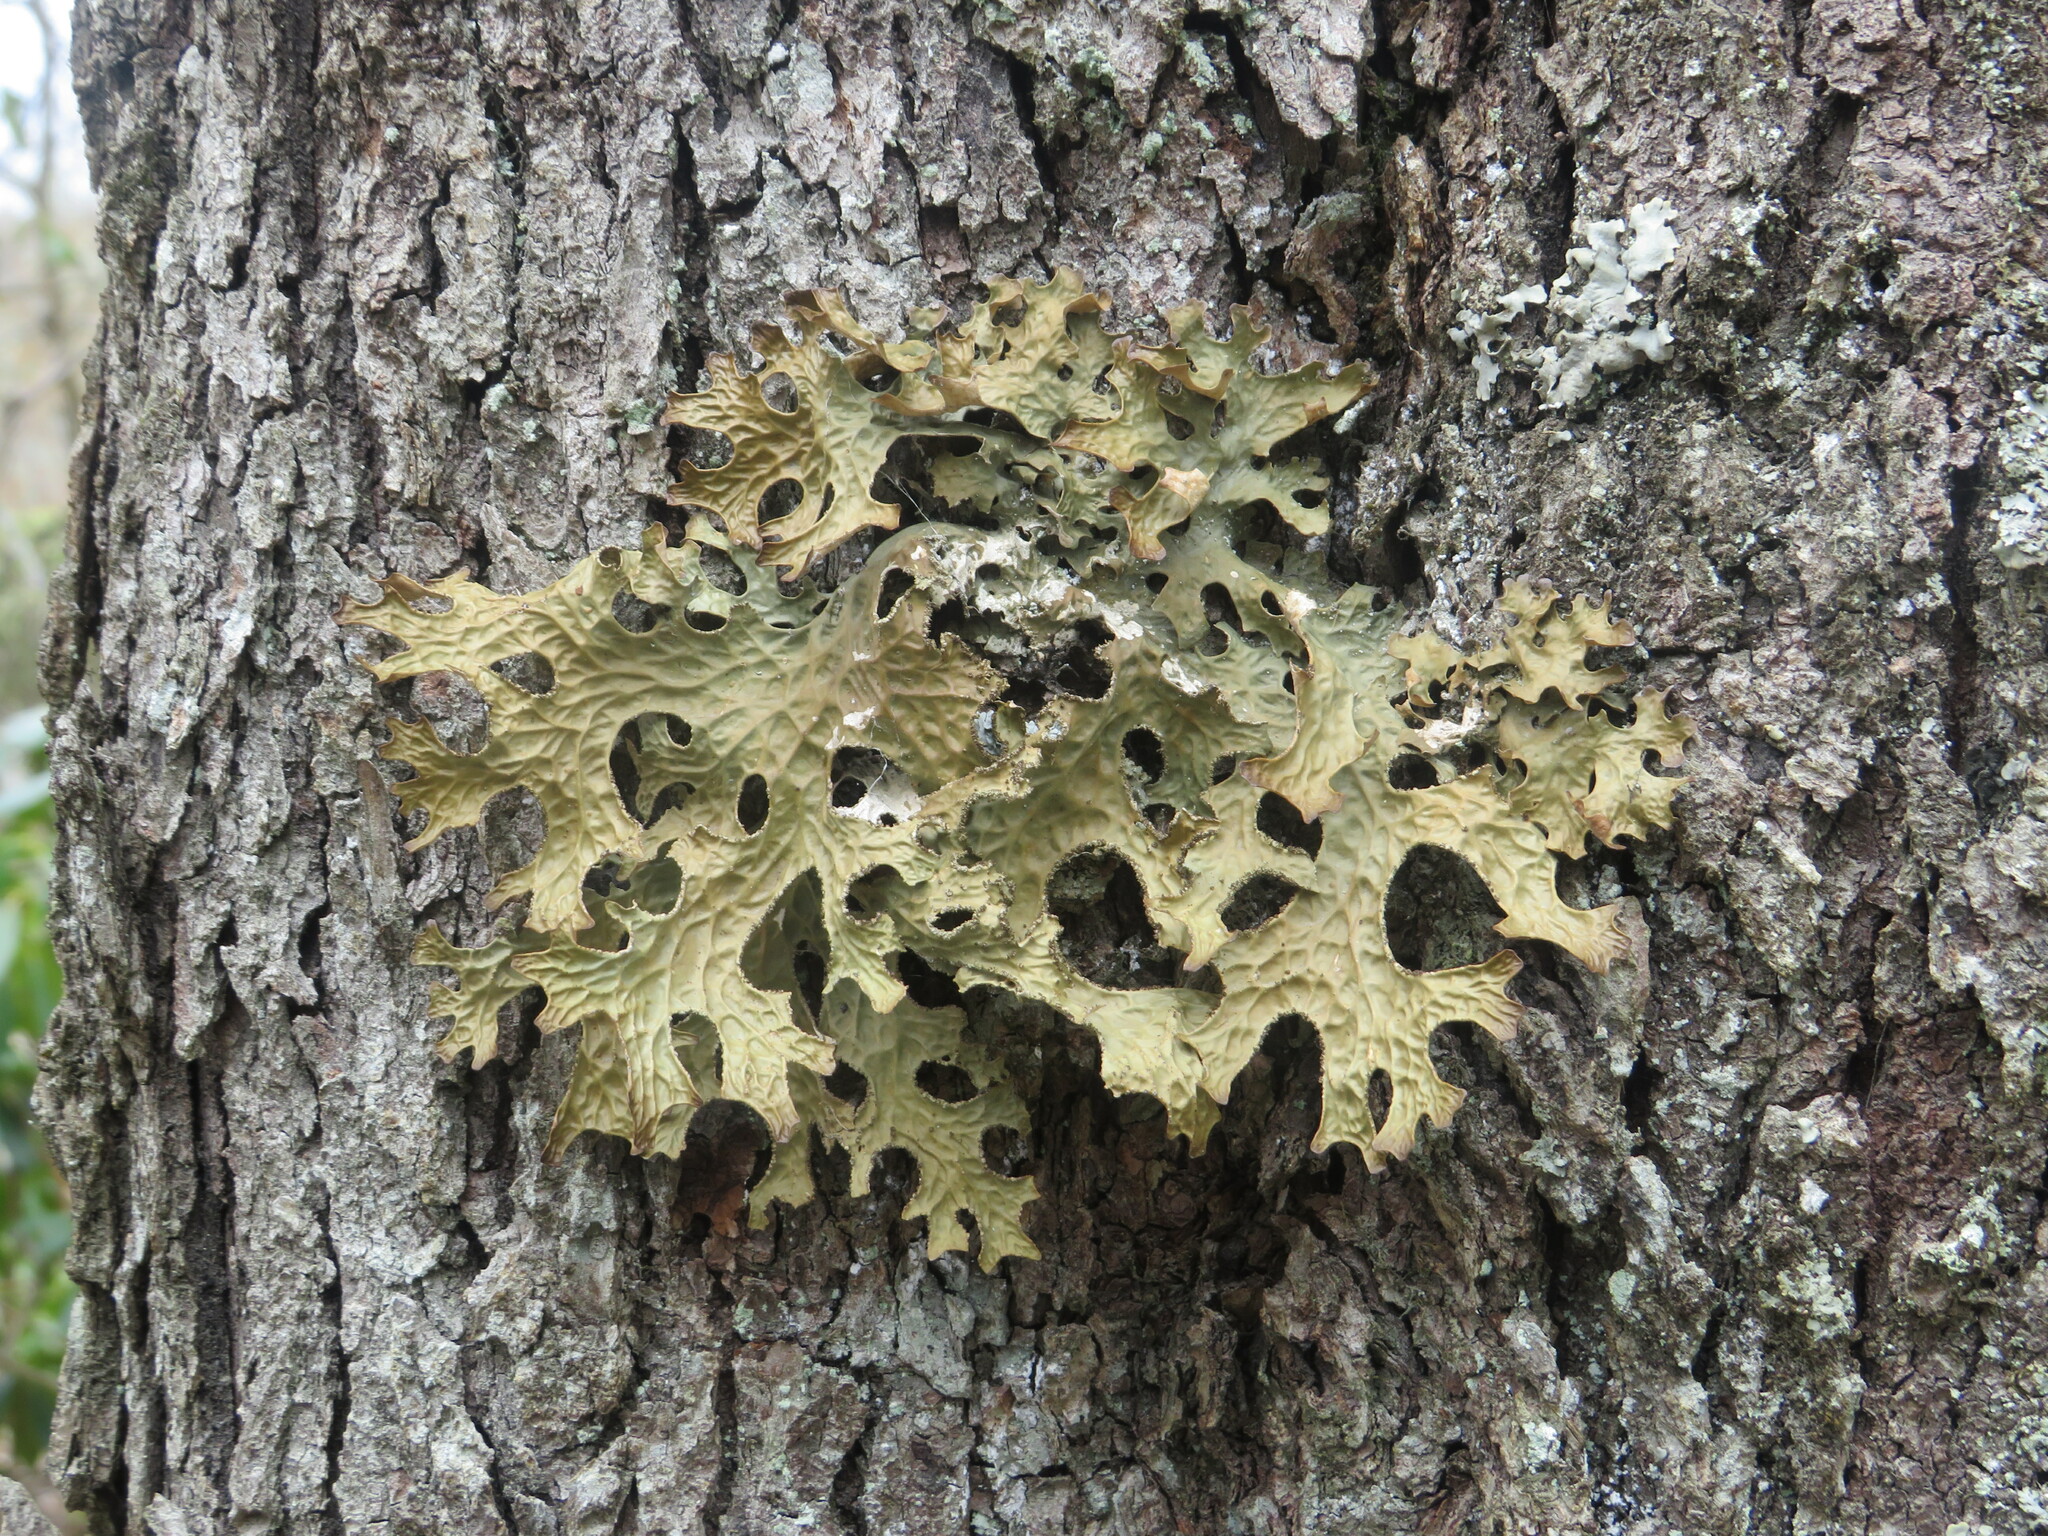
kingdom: Fungi
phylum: Ascomycota
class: Lecanoromycetes
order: Peltigerales
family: Lobariaceae
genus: Lobaria
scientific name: Lobaria pulmonaria
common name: Lungwort
